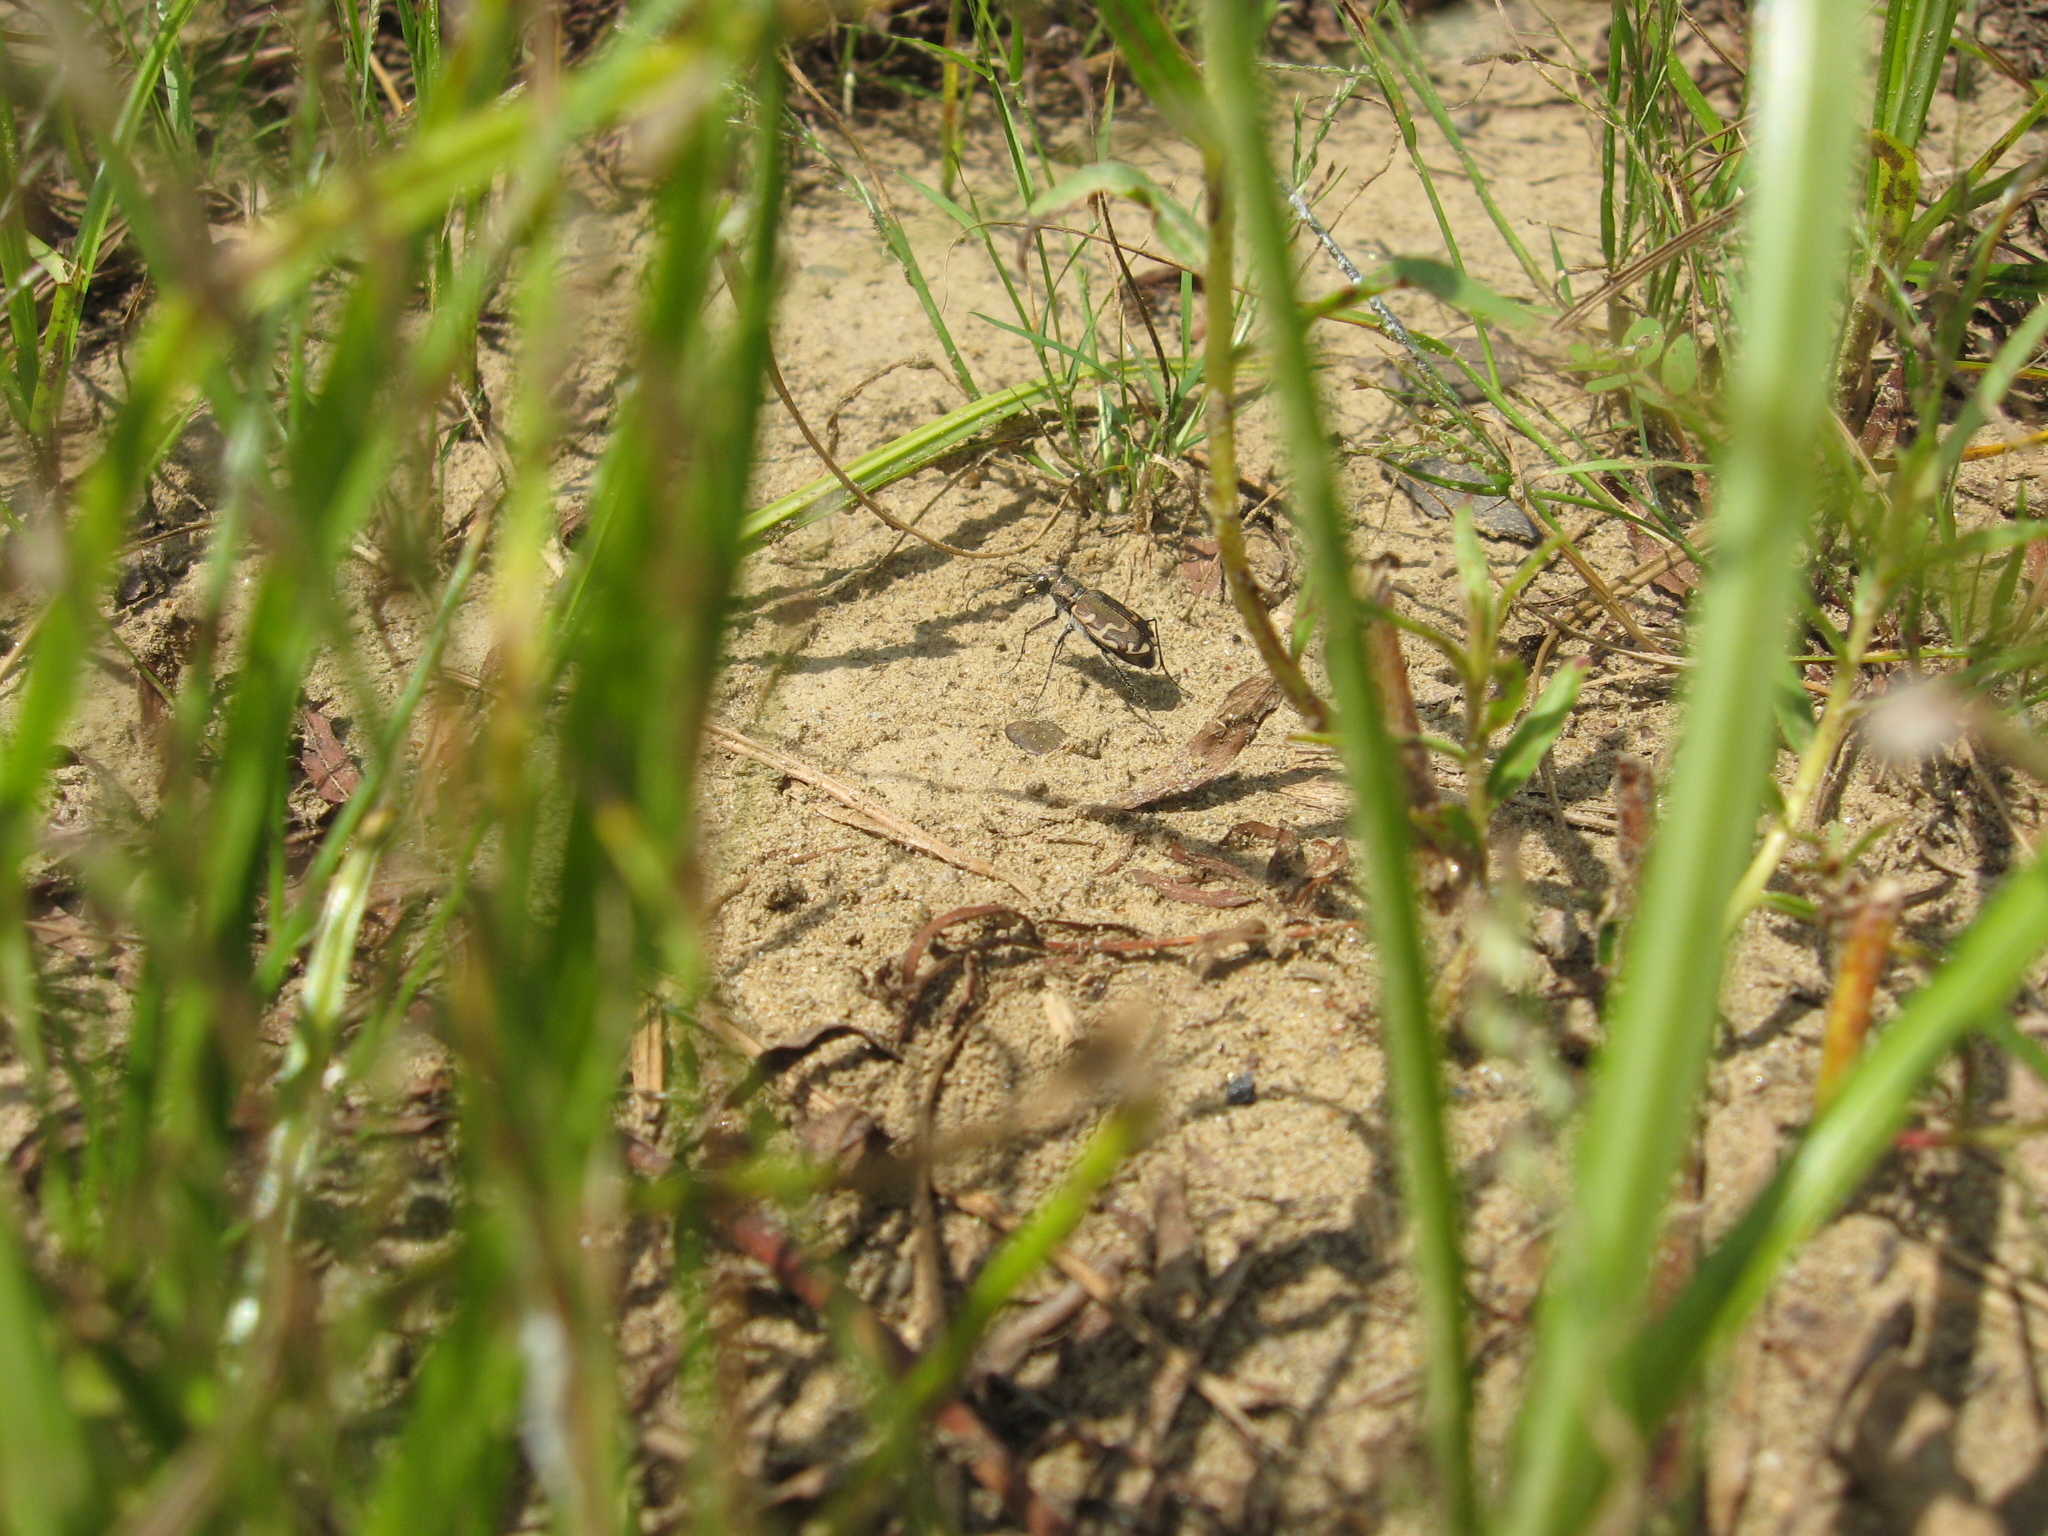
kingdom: Animalia
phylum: Arthropoda
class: Insecta
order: Coleoptera
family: Carabidae
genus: Cicindela
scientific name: Cicindela repanda
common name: Bronzed tiger beetle
